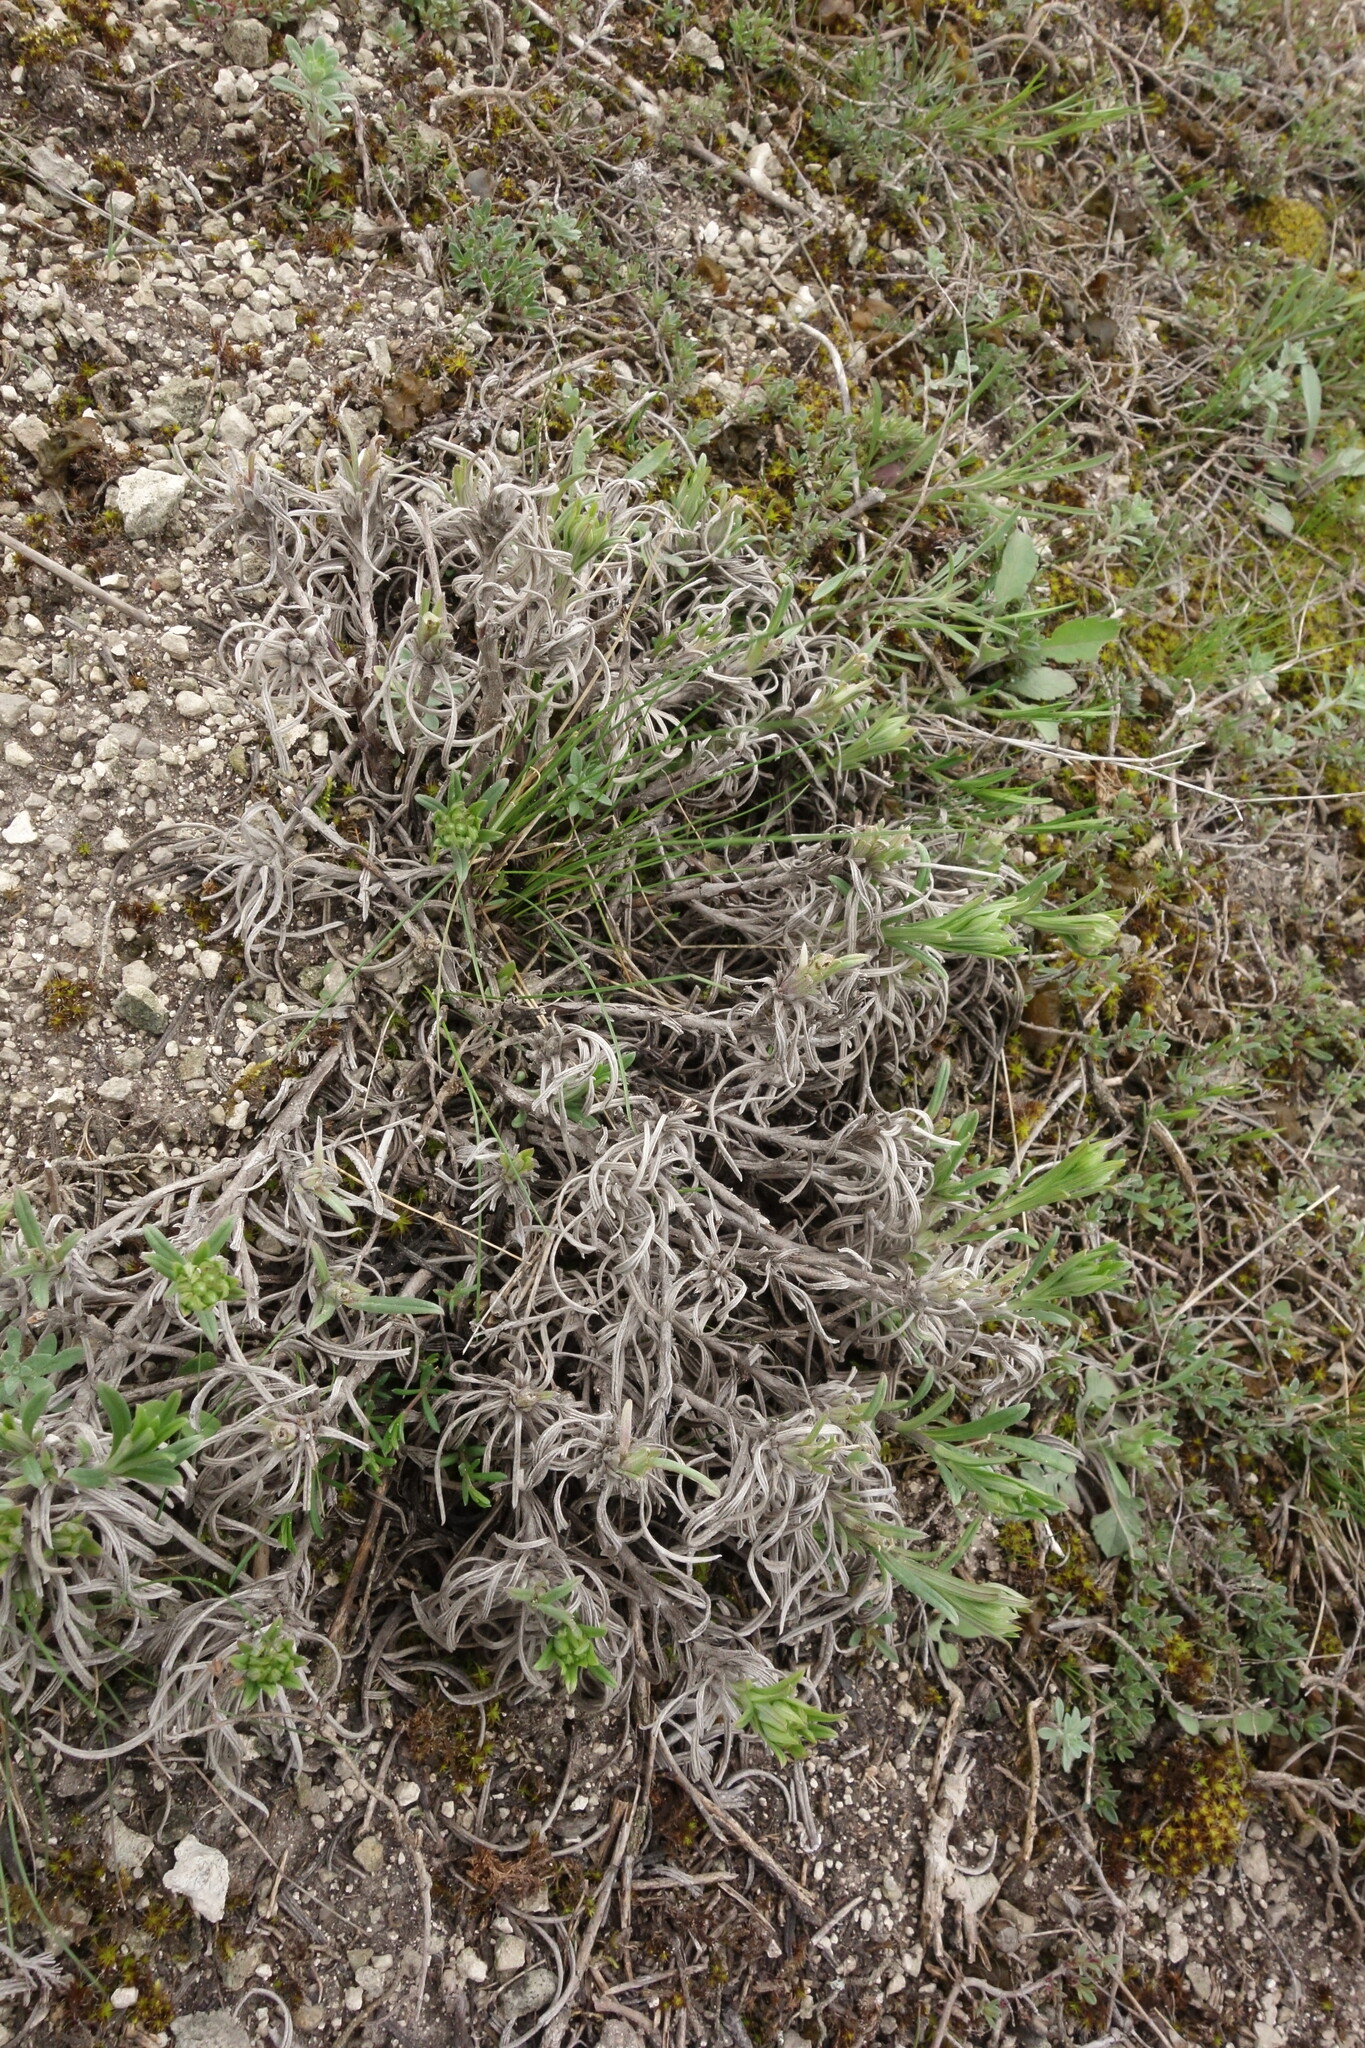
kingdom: Plantae
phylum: Tracheophyta
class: Magnoliopsida
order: Boraginales
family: Boraginaceae
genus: Onosma
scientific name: Onosma simplicissima
